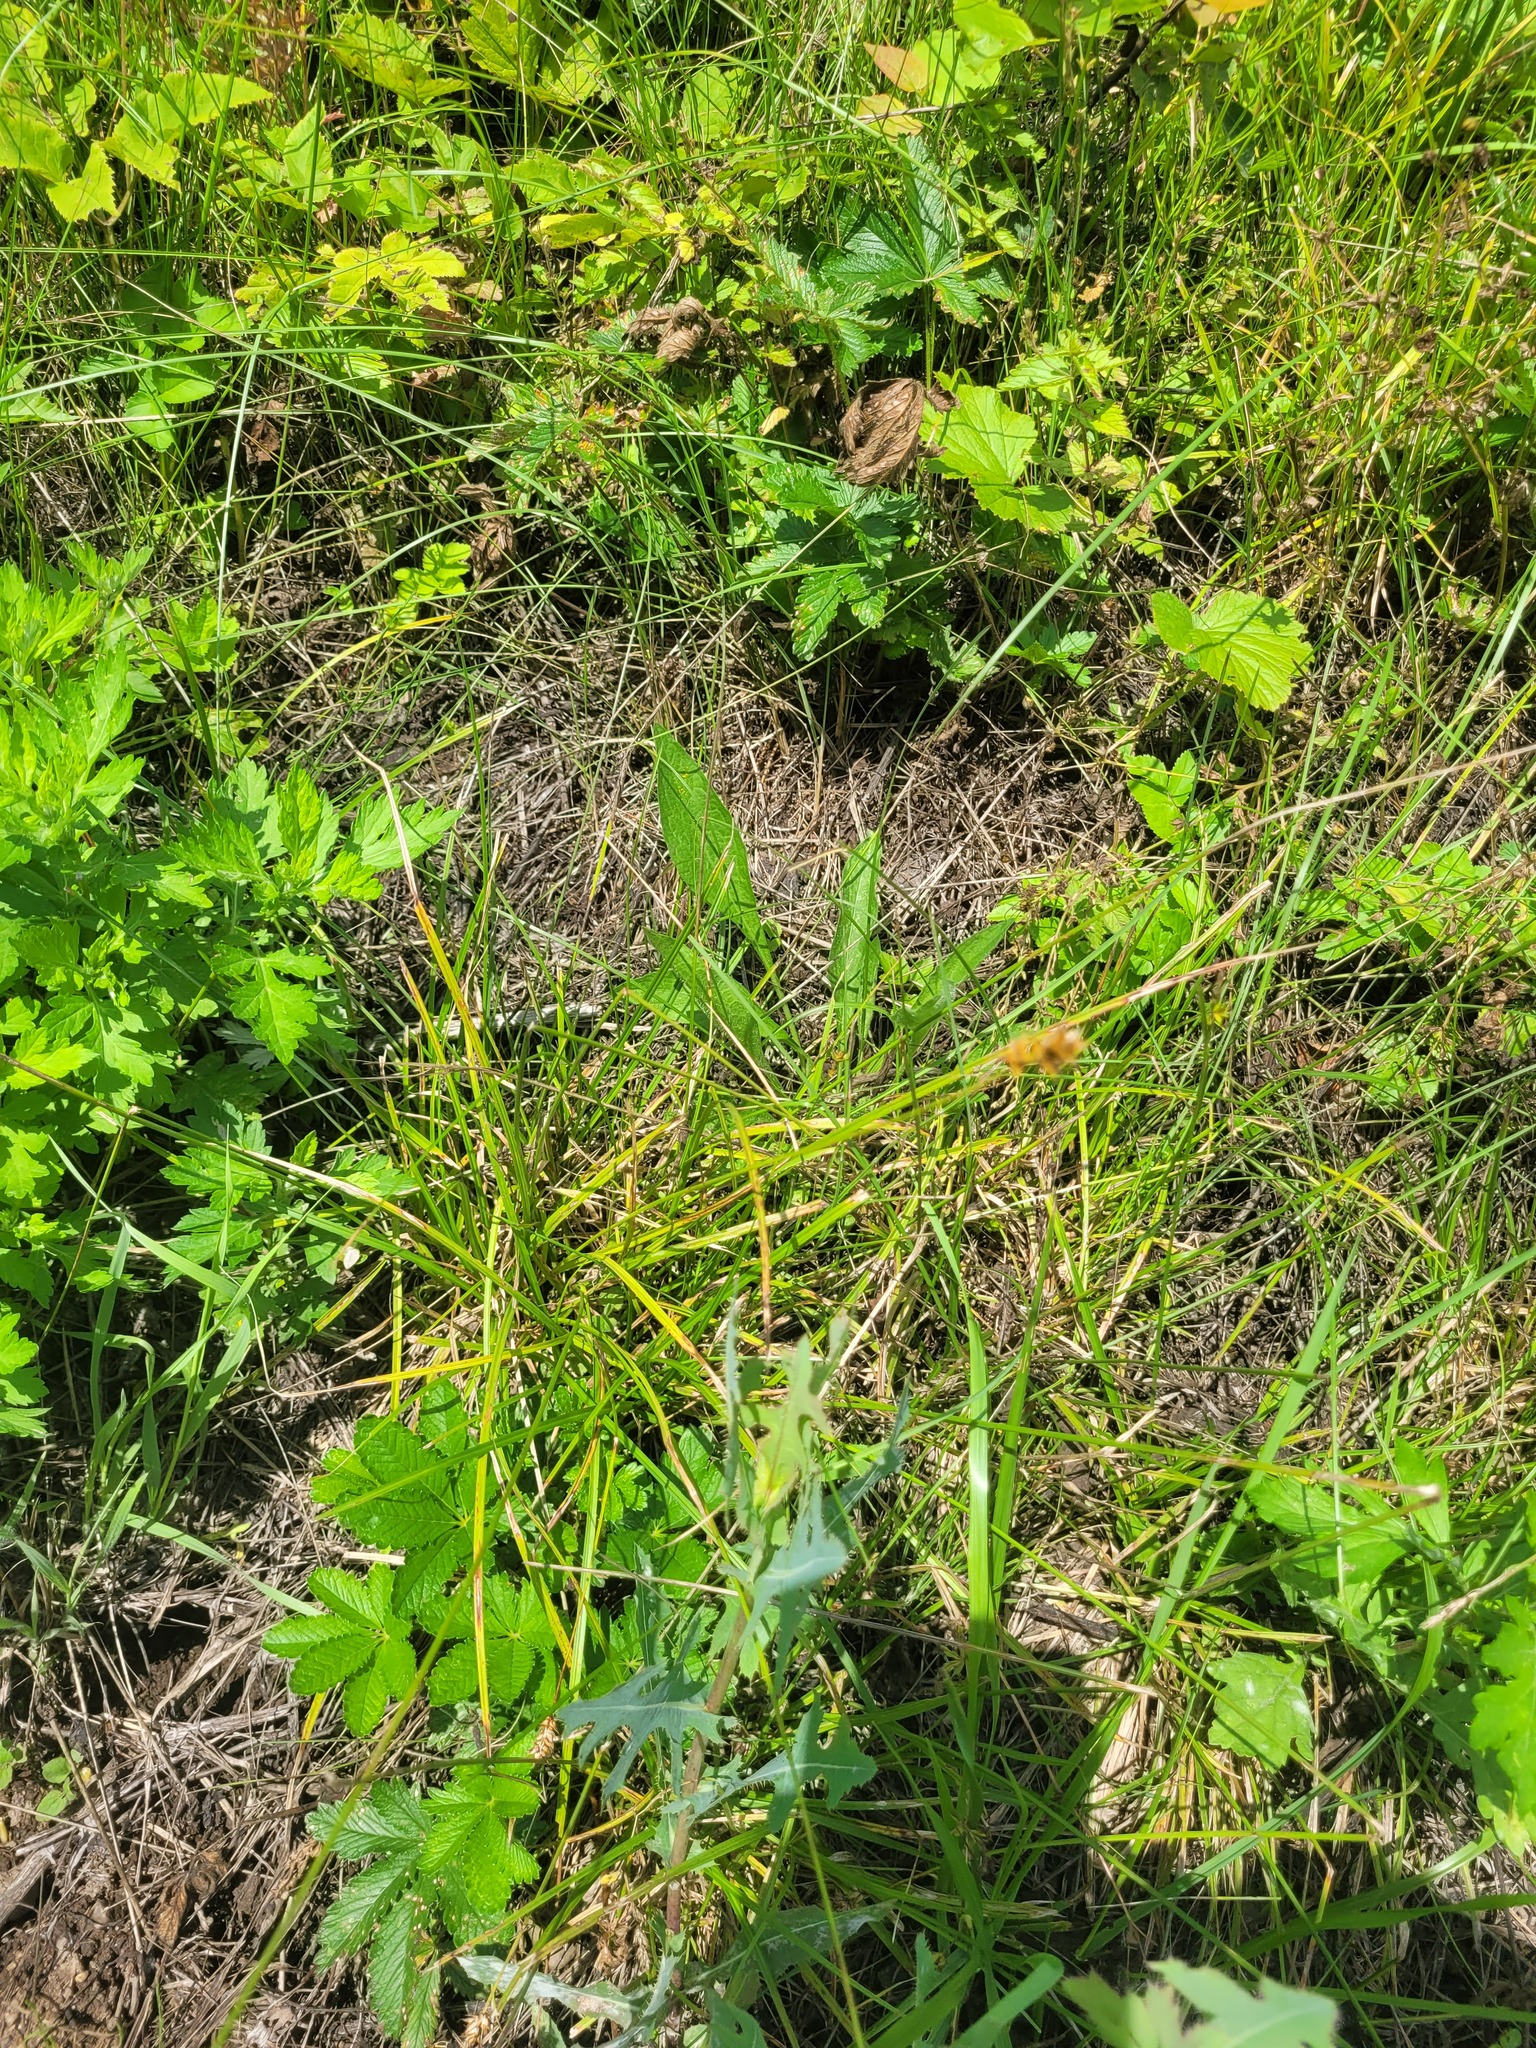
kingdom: Plantae
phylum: Tracheophyta
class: Liliopsida
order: Poales
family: Cyperaceae
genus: Carex
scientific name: Carex spicata
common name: Spiked sedge
